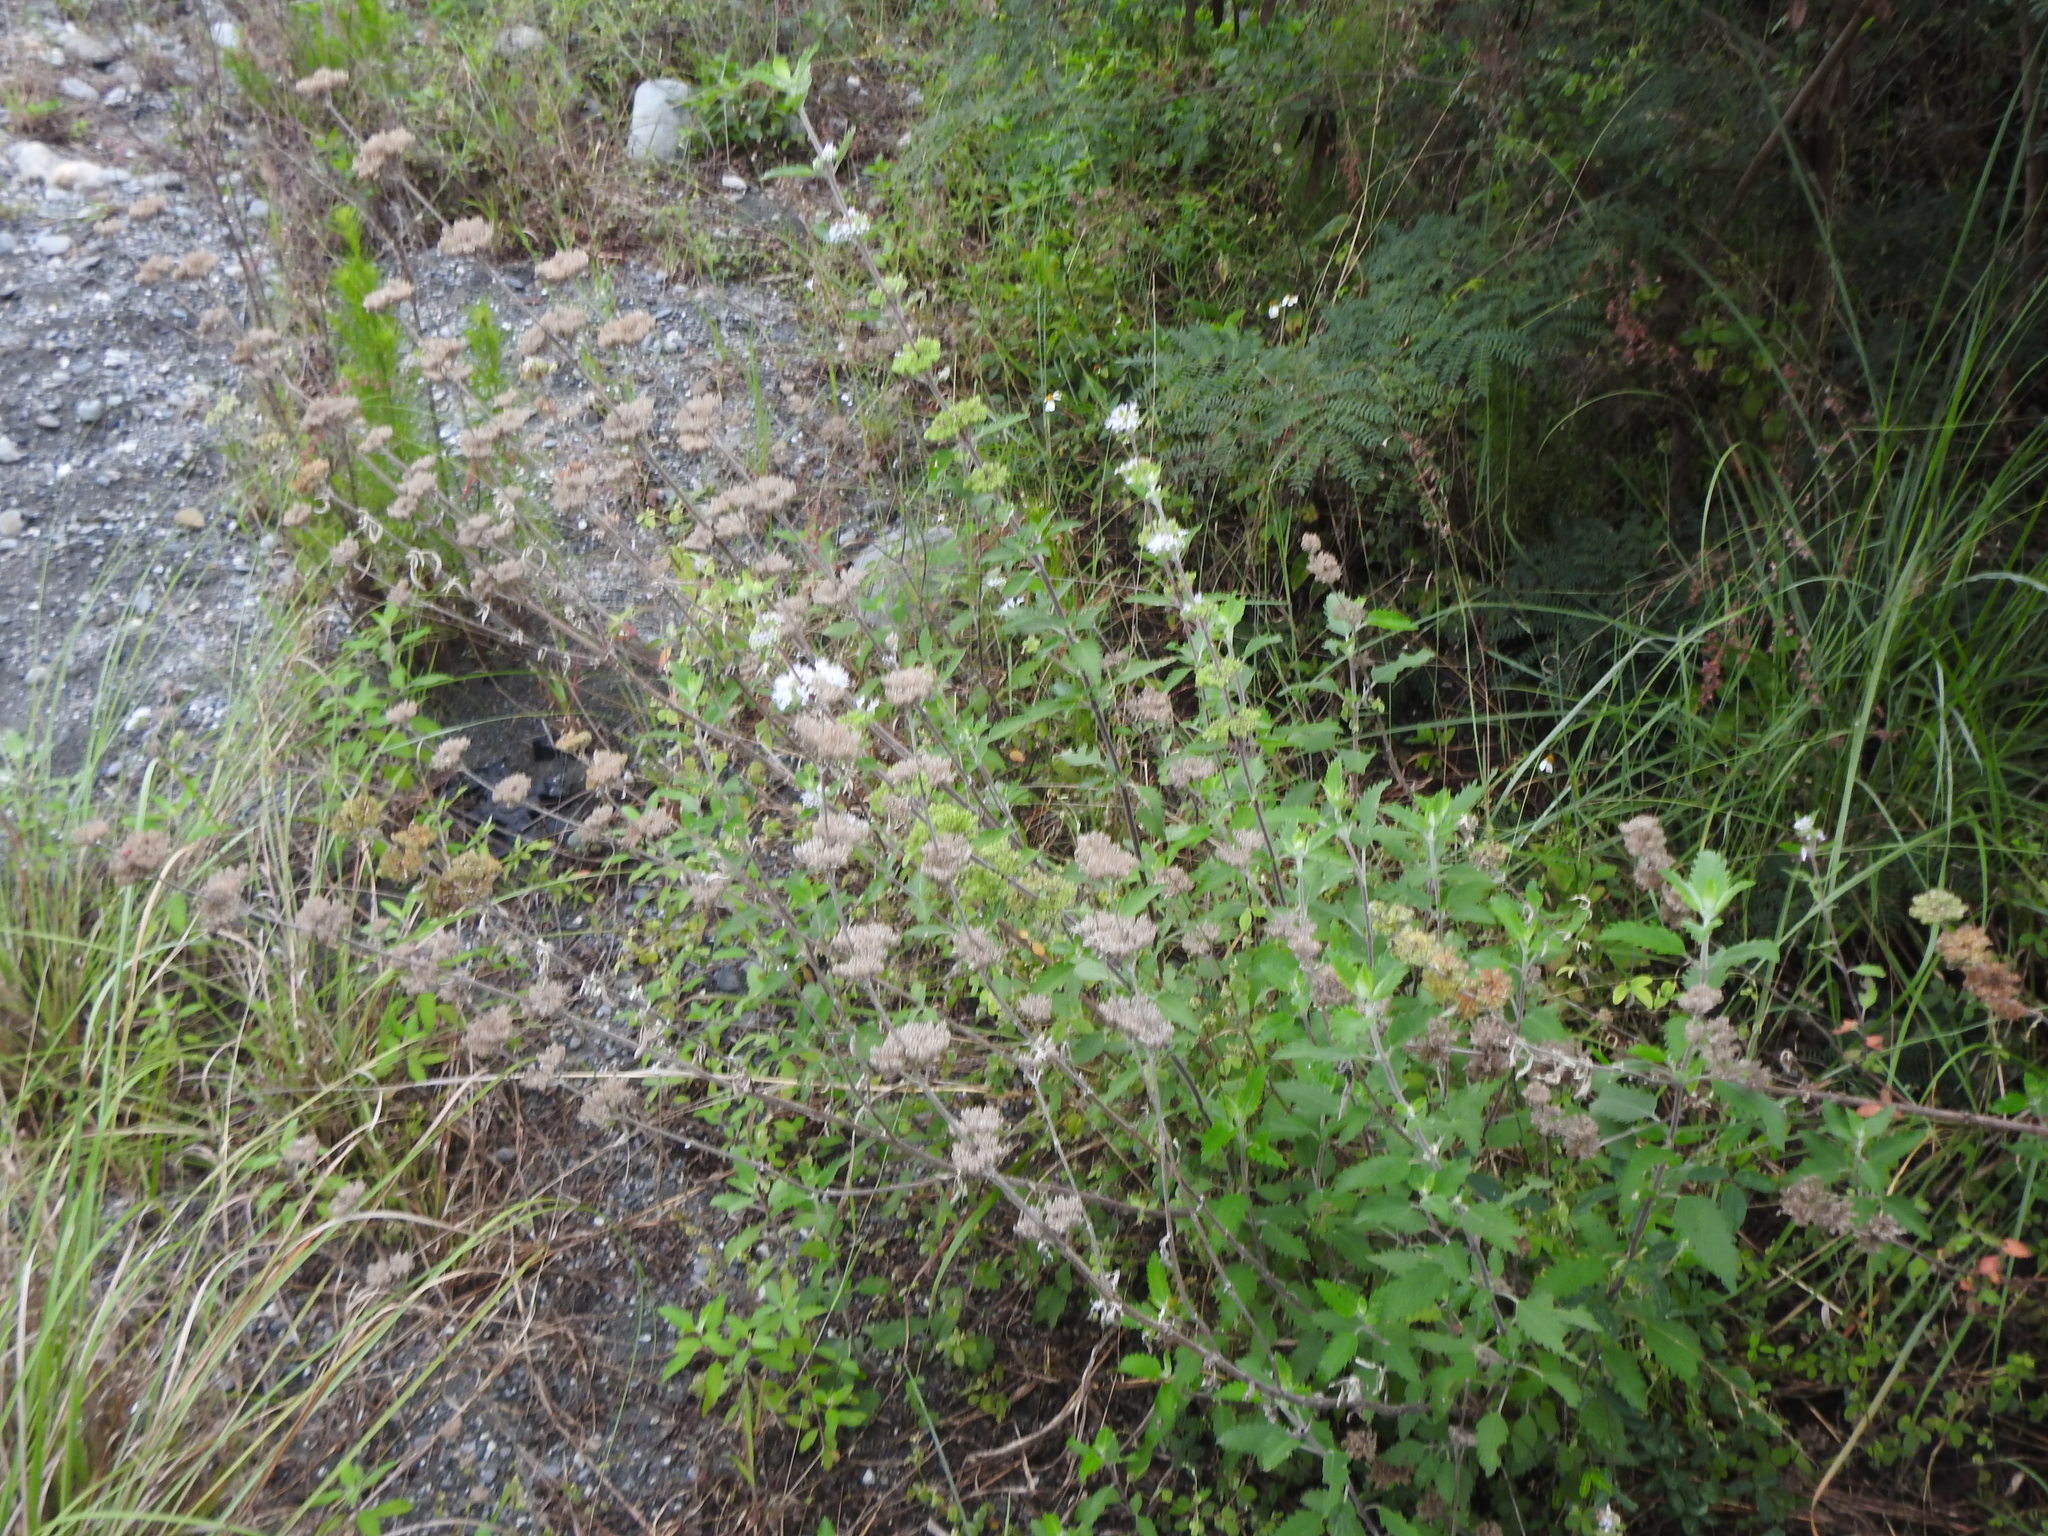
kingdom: Plantae
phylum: Tracheophyta
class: Magnoliopsida
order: Lamiales
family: Lamiaceae
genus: Caryopteris
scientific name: Caryopteris incana
